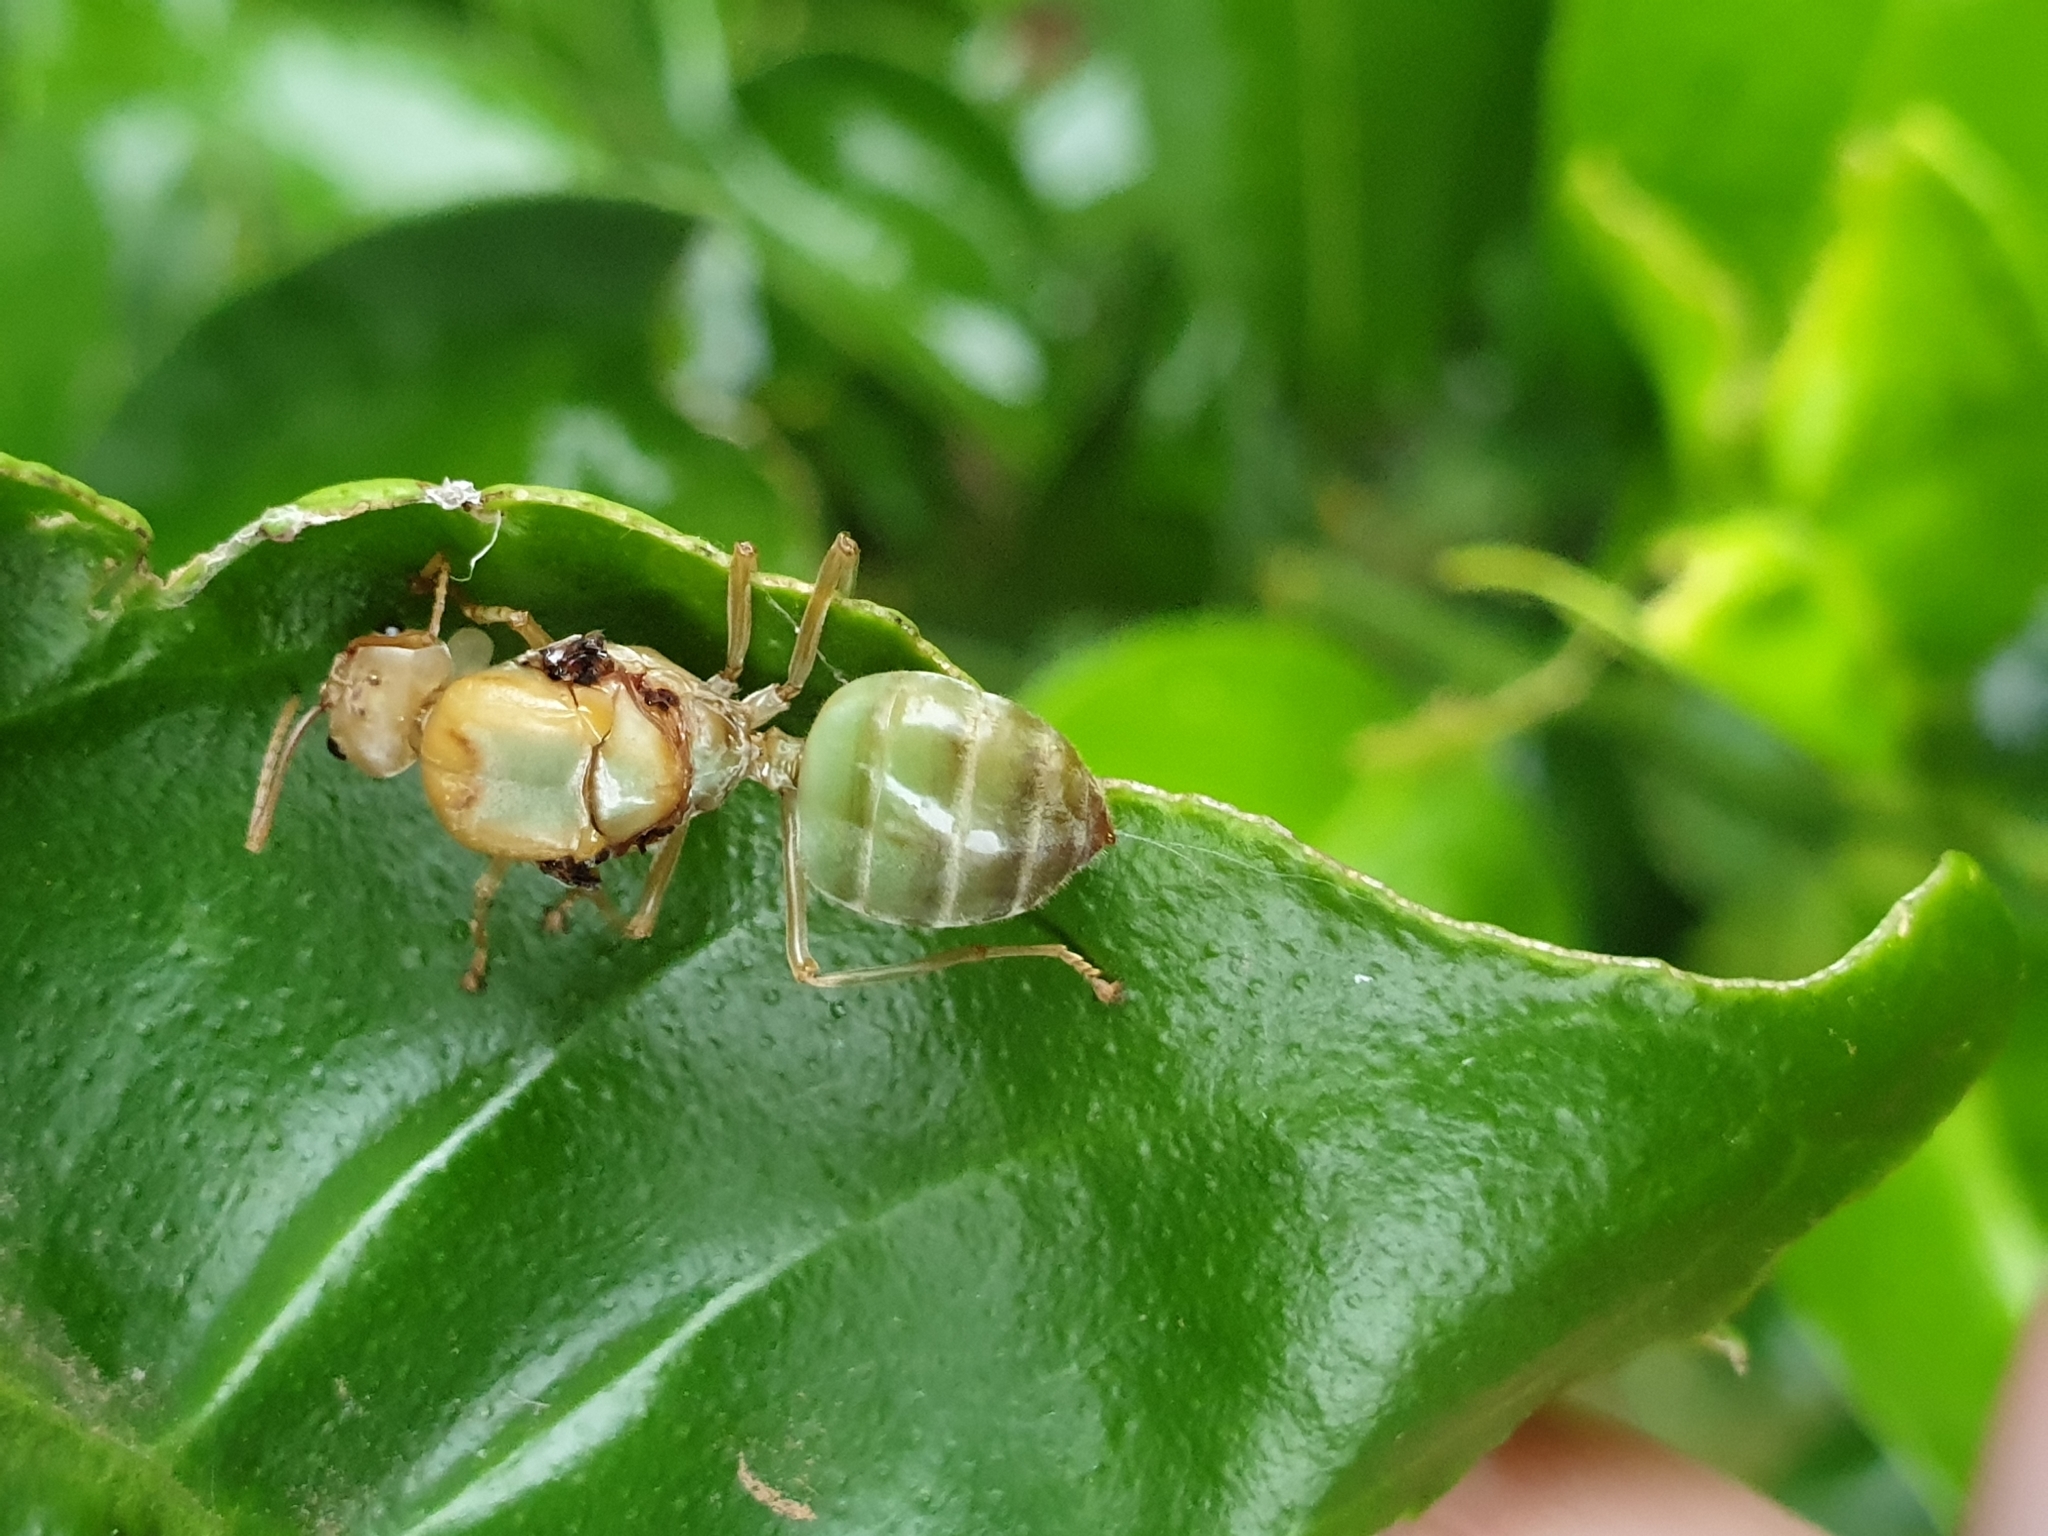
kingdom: Animalia
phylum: Arthropoda
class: Insecta
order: Hymenoptera
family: Formicidae
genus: Oecophylla
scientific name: Oecophylla smaragdina
